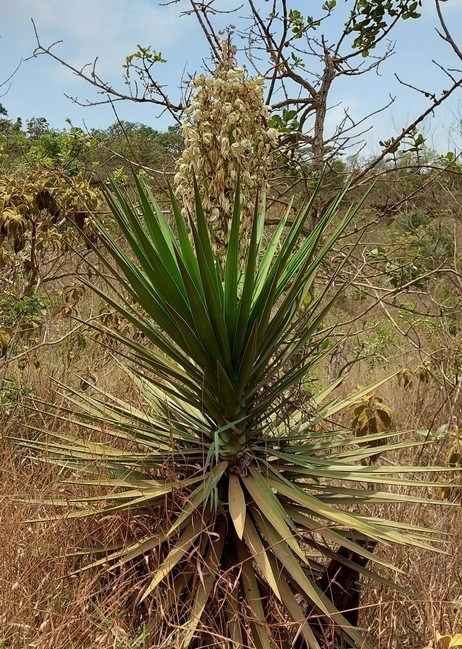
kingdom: Plantae
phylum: Tracheophyta
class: Liliopsida
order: Asparagales
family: Asparagaceae
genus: Yucca
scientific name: Yucca aloifolia
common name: Aloe yucca
